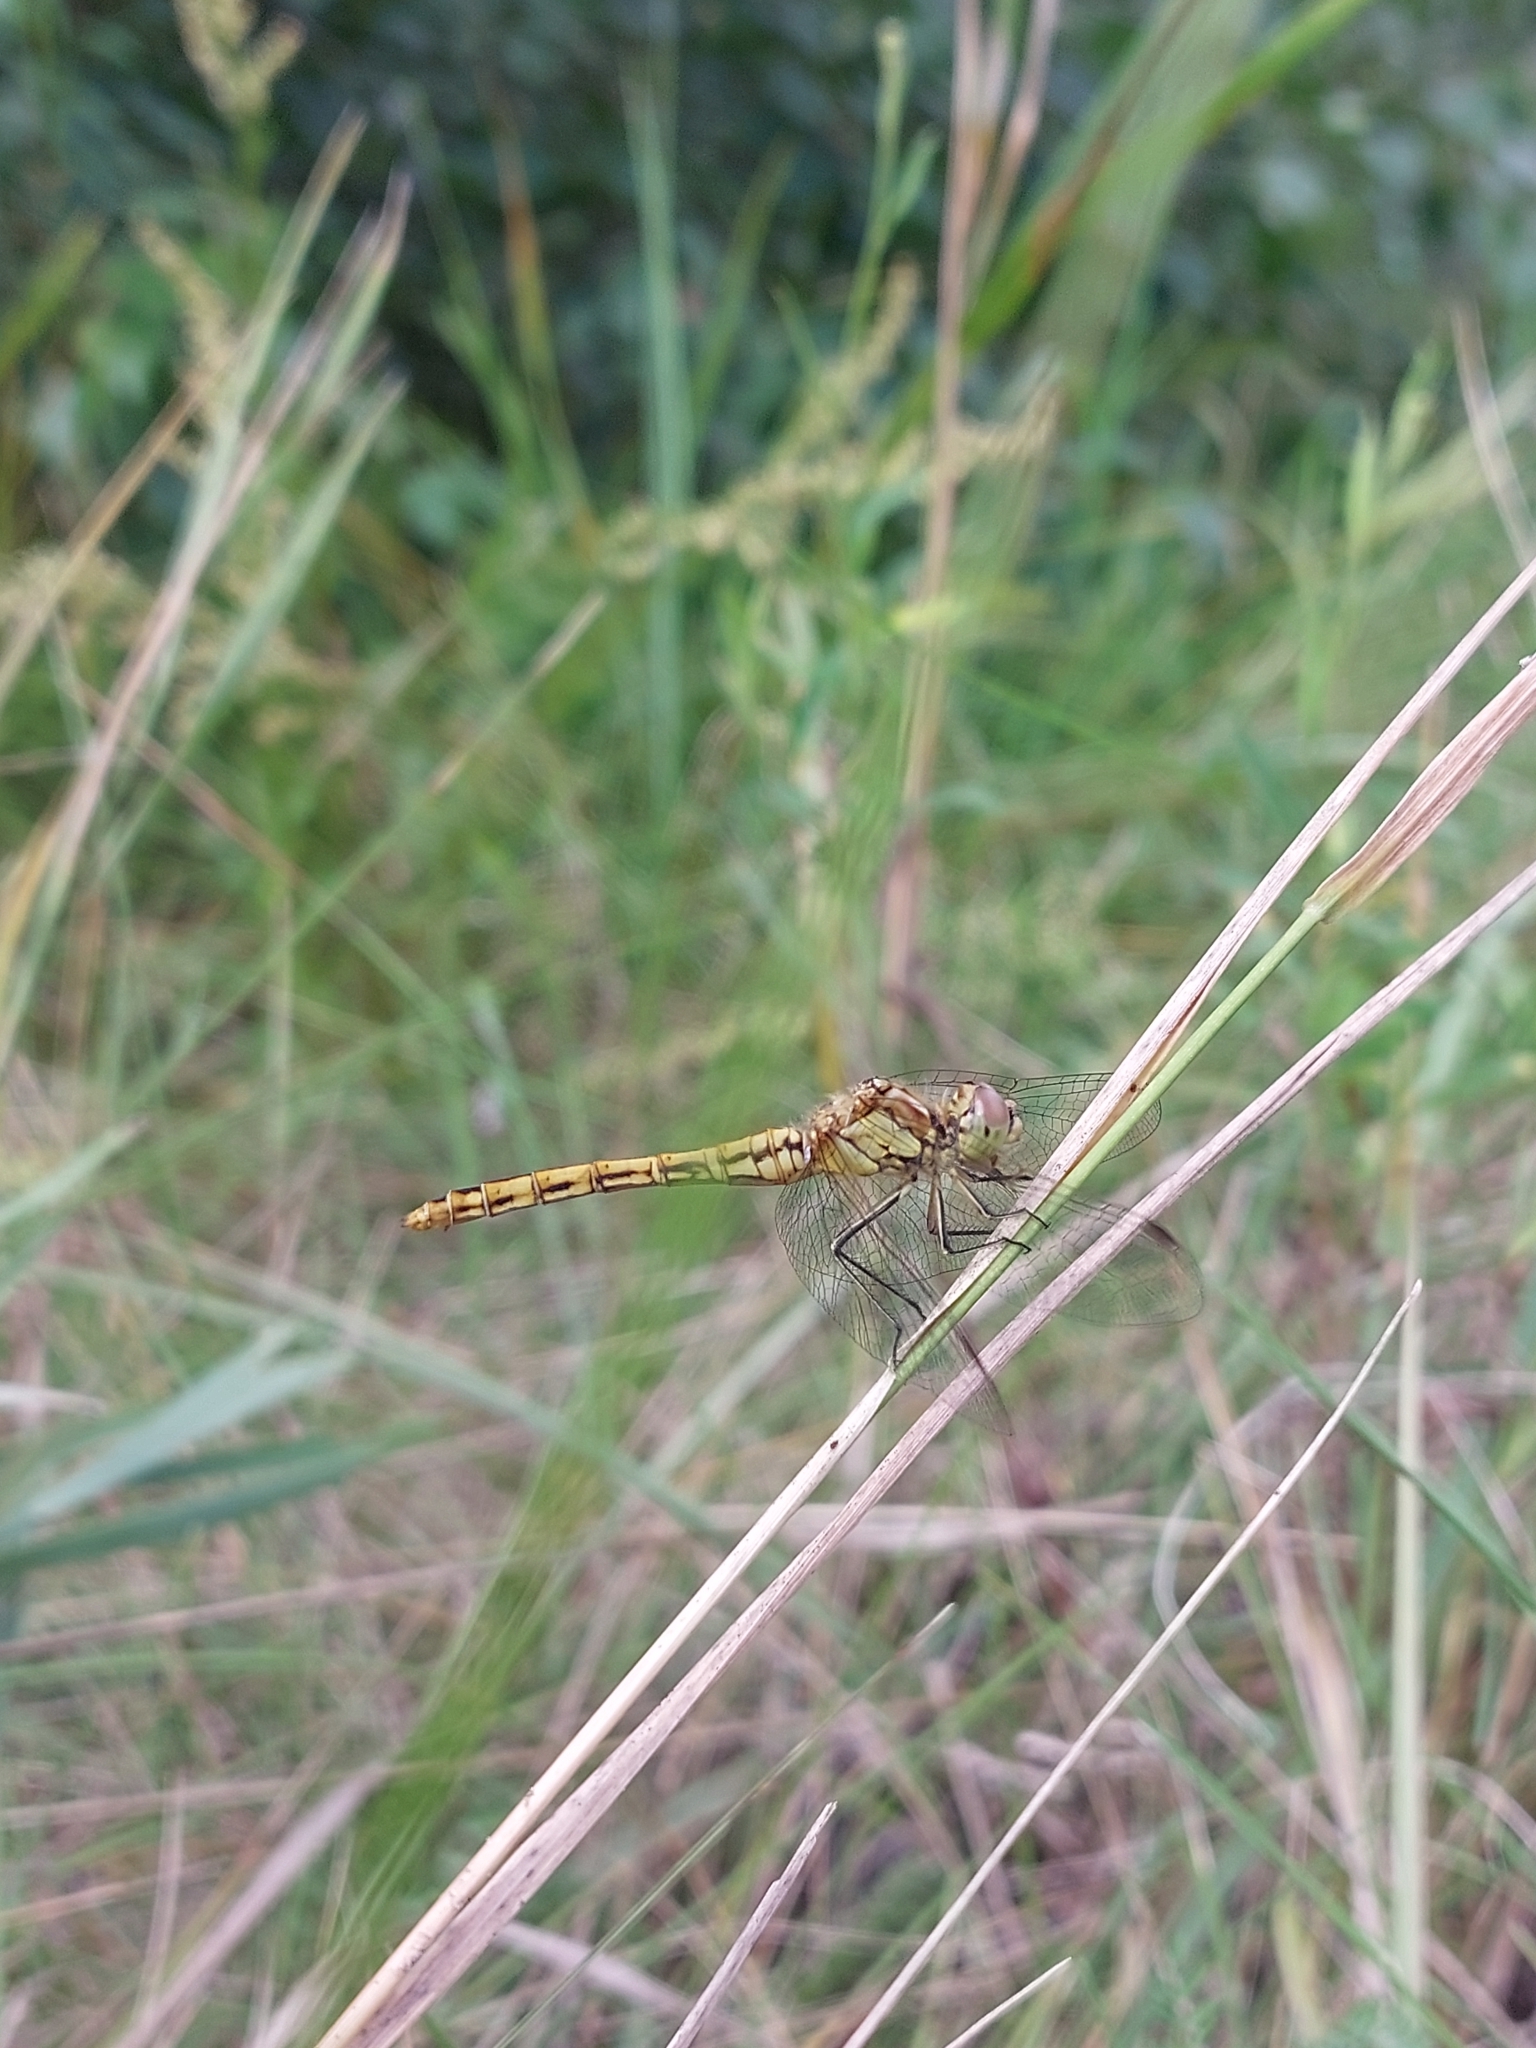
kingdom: Animalia
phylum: Arthropoda
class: Insecta
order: Odonata
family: Libellulidae
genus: Sympetrum
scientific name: Sympetrum vulgatum
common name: Vagrant darter
